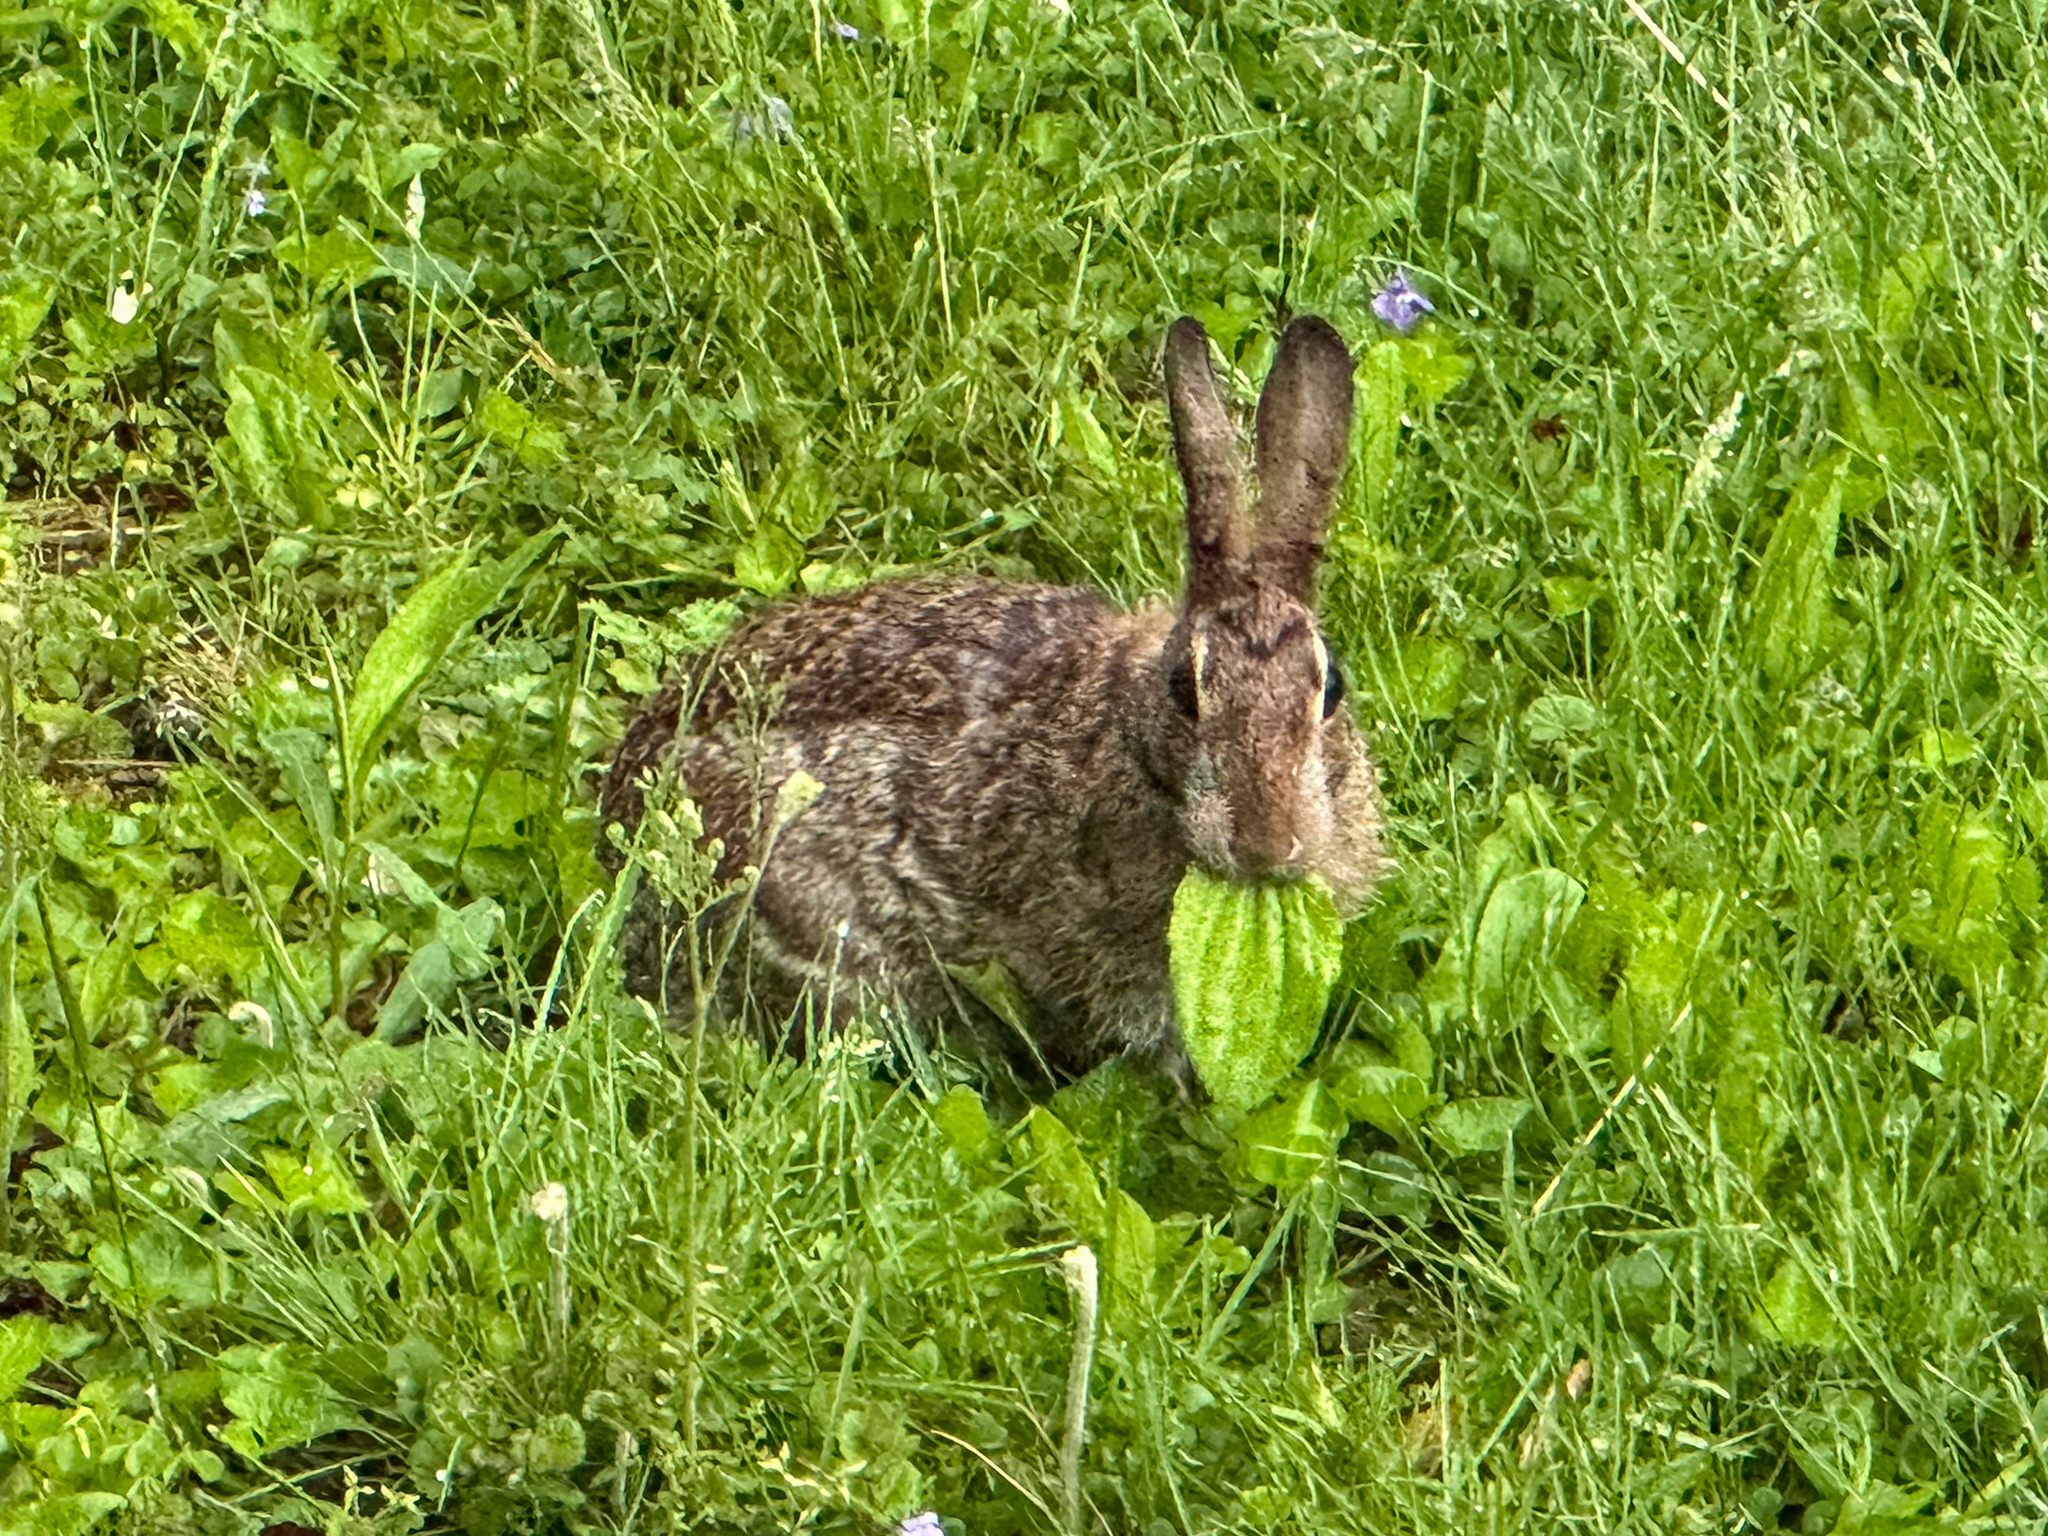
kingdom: Animalia
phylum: Chordata
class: Mammalia
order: Lagomorpha
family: Leporidae
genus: Sylvilagus
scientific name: Sylvilagus floridanus
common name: Eastern cottontail
